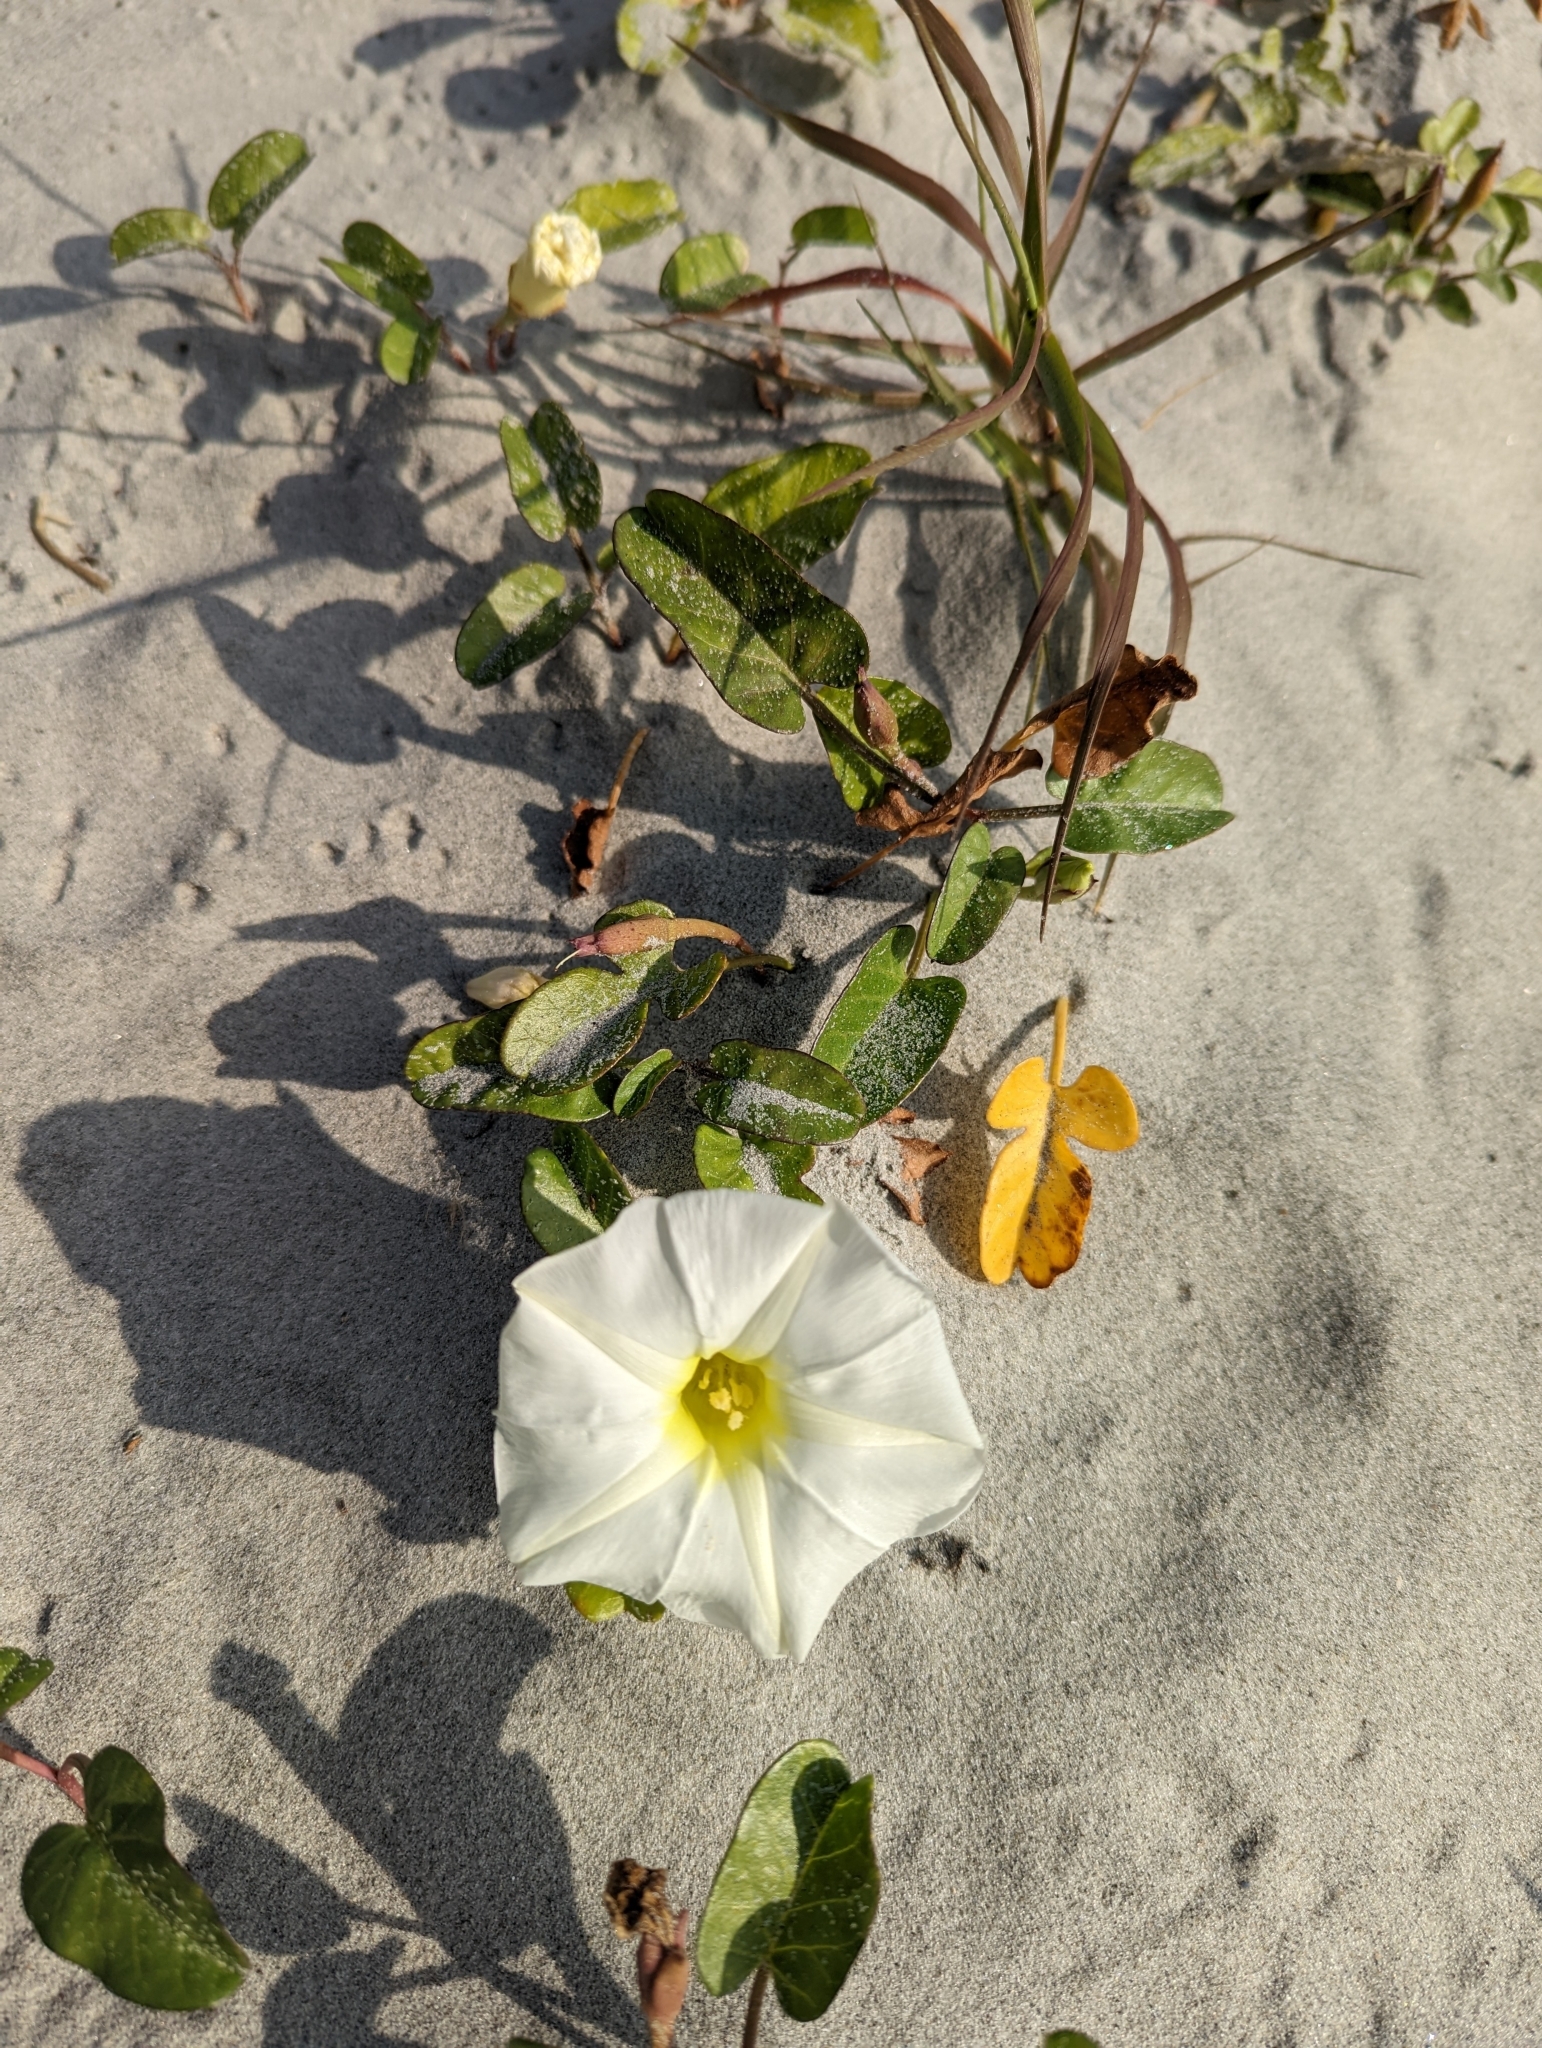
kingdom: Plantae
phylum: Tracheophyta
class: Magnoliopsida
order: Solanales
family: Convolvulaceae
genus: Ipomoea
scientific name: Ipomoea imperati
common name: Fiddle-leaf morning-glory
